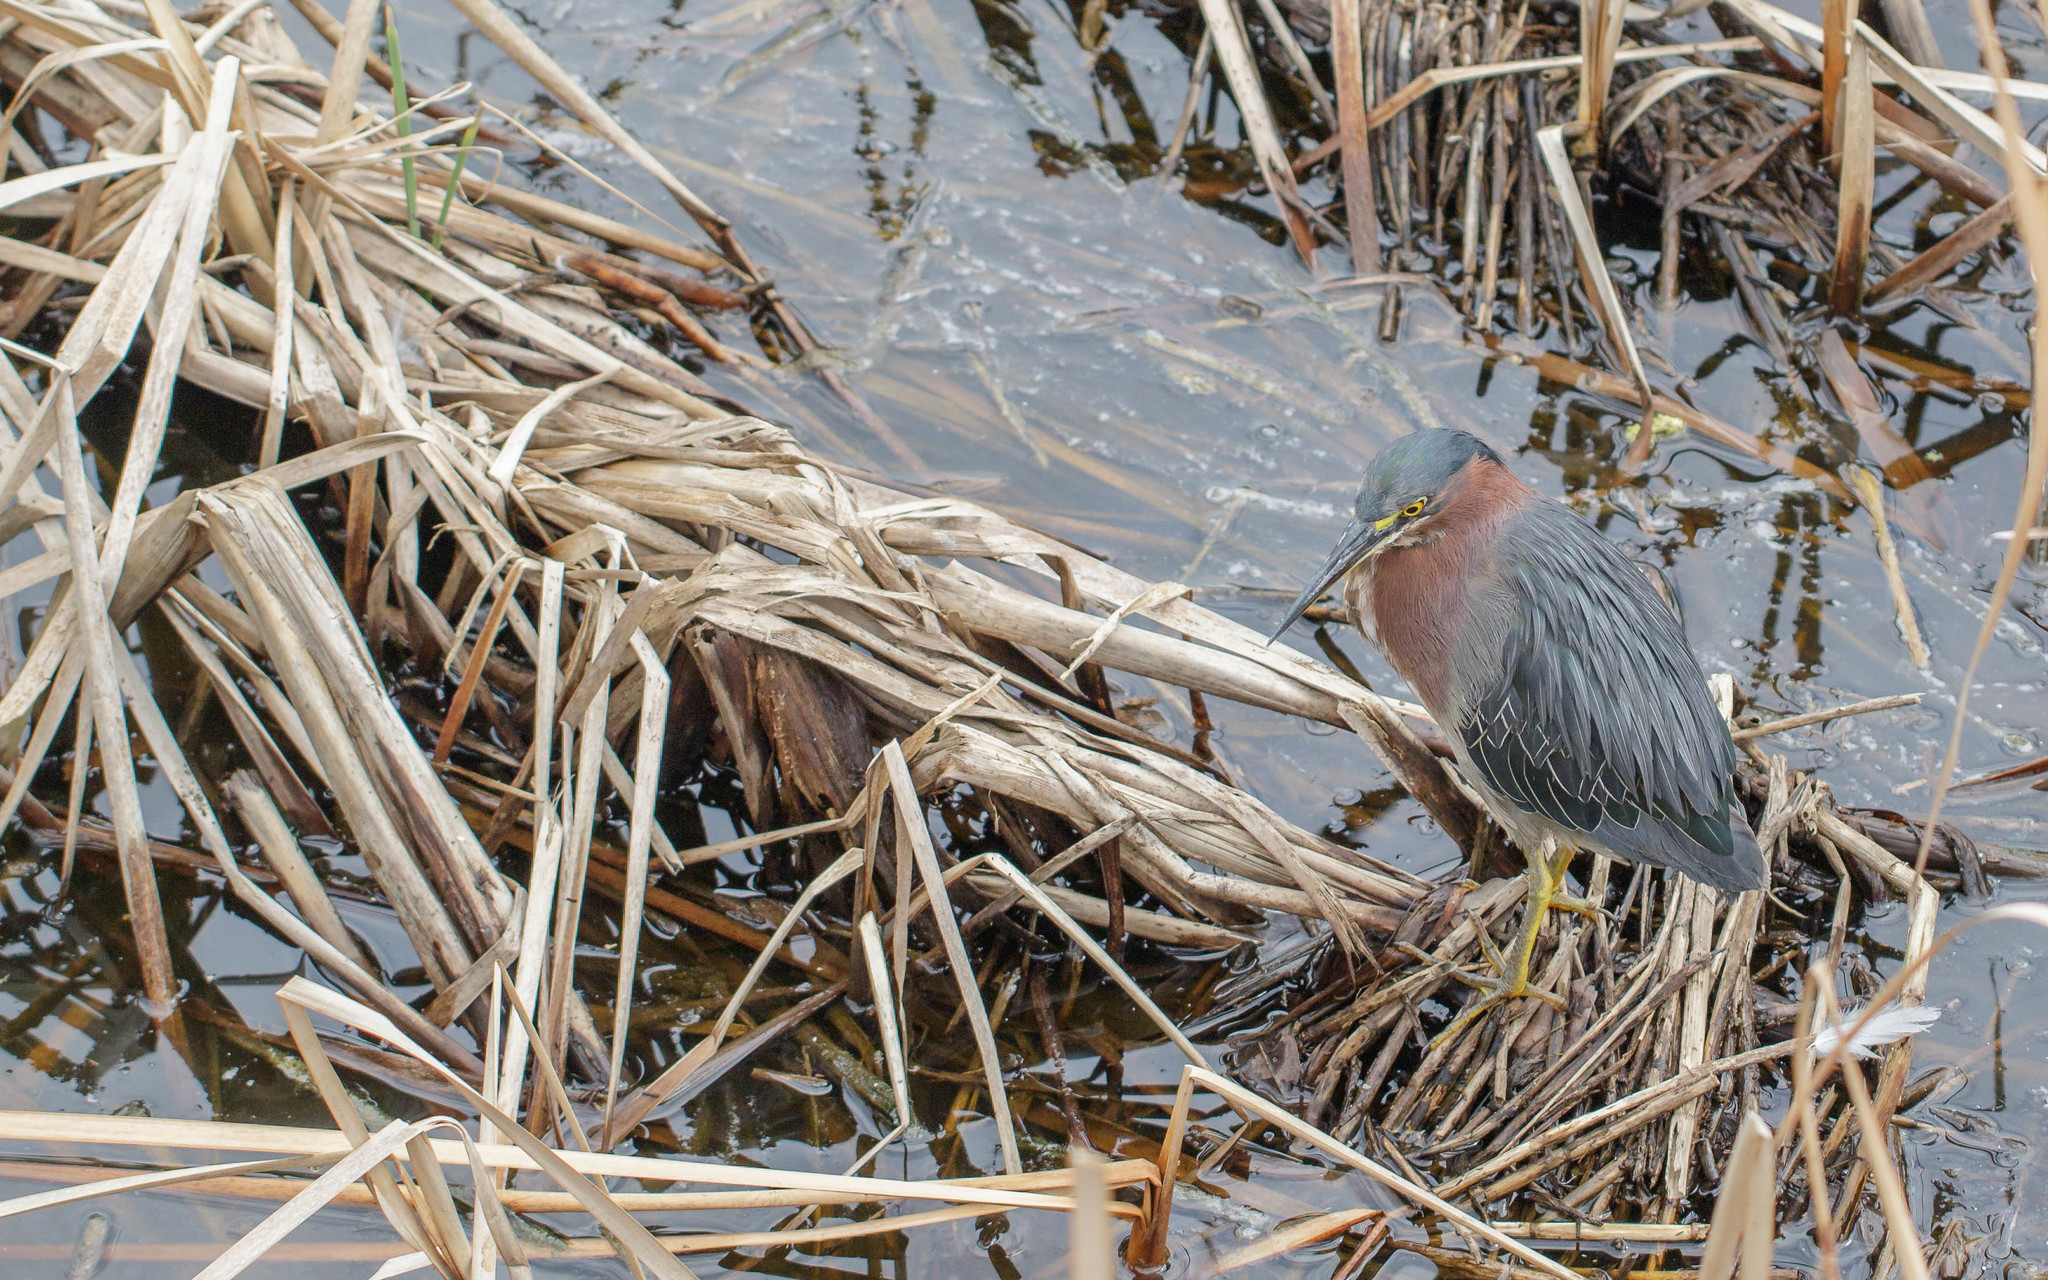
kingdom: Animalia
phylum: Chordata
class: Aves
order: Pelecaniformes
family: Ardeidae
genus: Butorides
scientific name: Butorides virescens
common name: Green heron
